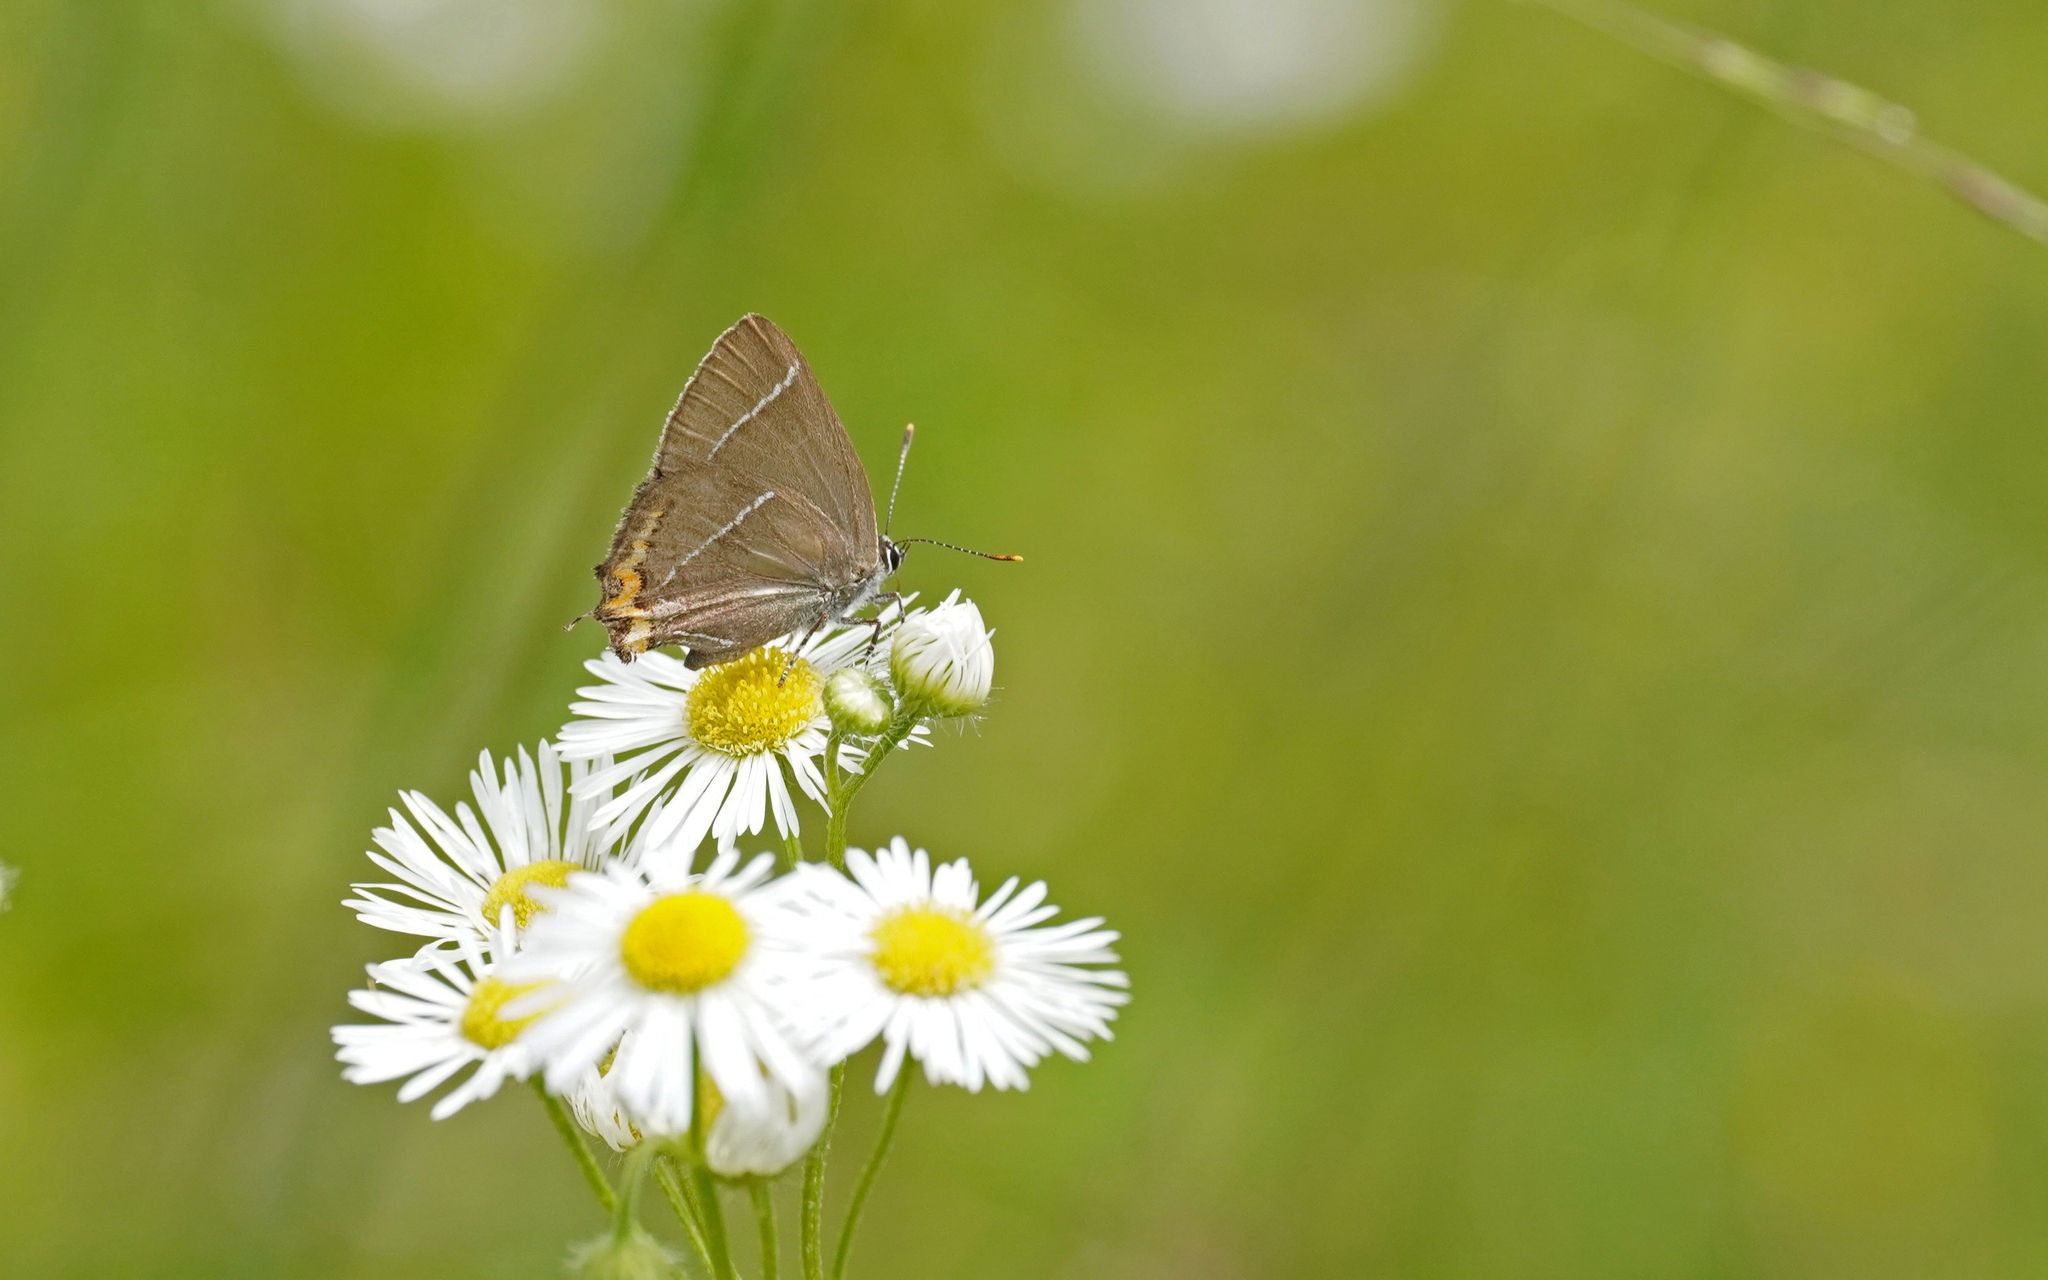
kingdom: Animalia
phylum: Arthropoda
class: Insecta
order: Lepidoptera
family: Lycaenidae
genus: Satyrium
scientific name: Satyrium w-album
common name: White-letter hairstreak
